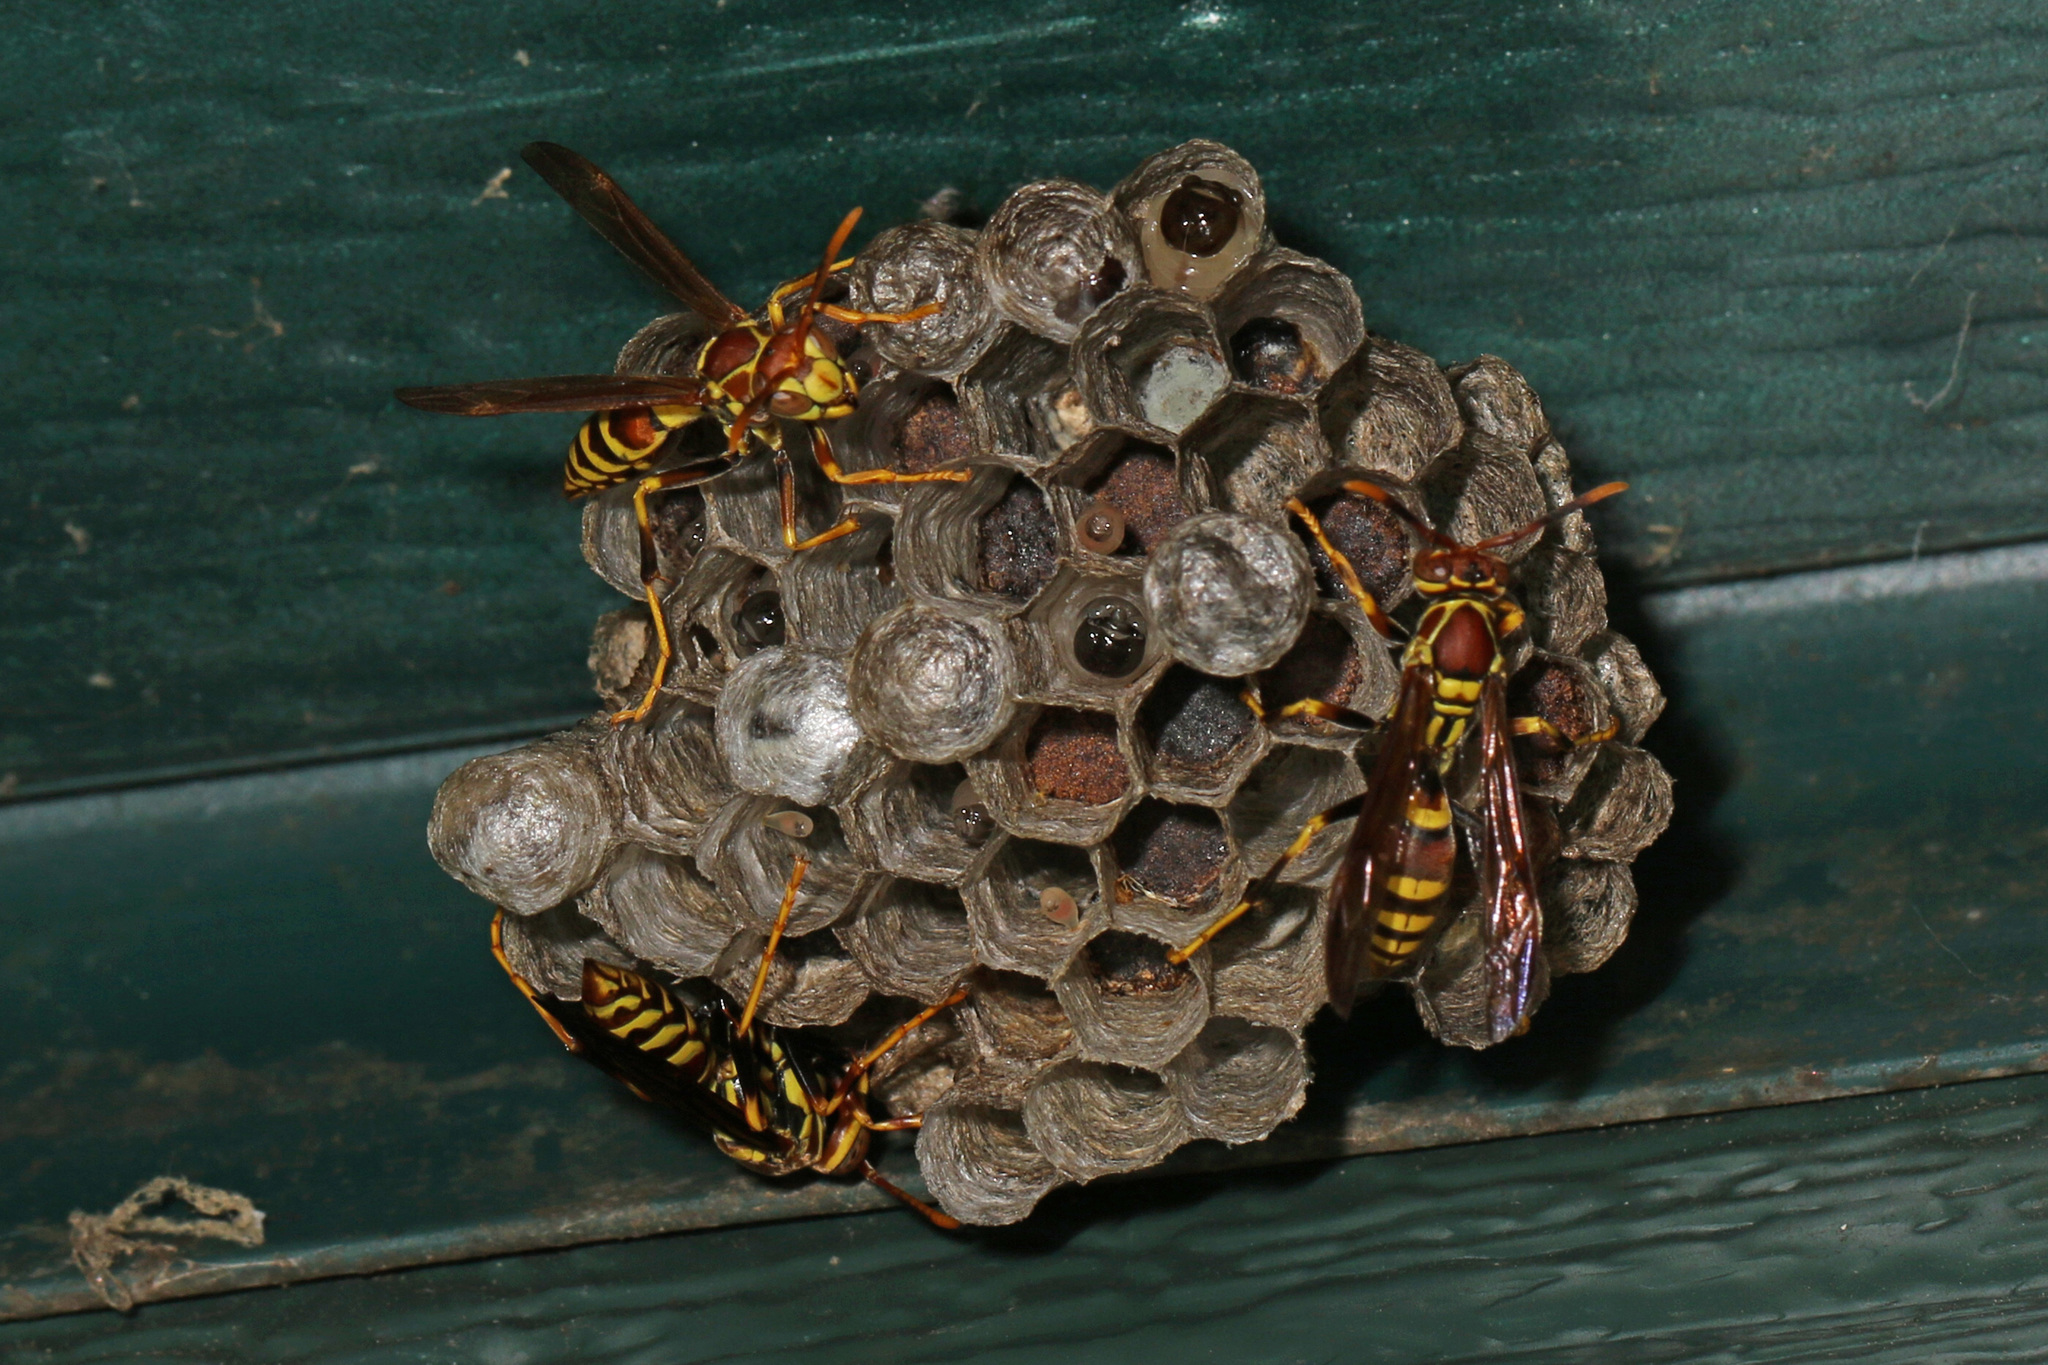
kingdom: Animalia
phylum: Arthropoda
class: Insecta
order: Hymenoptera
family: Eumenidae
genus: Polistes
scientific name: Polistes exclamans
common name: Paper wasp
